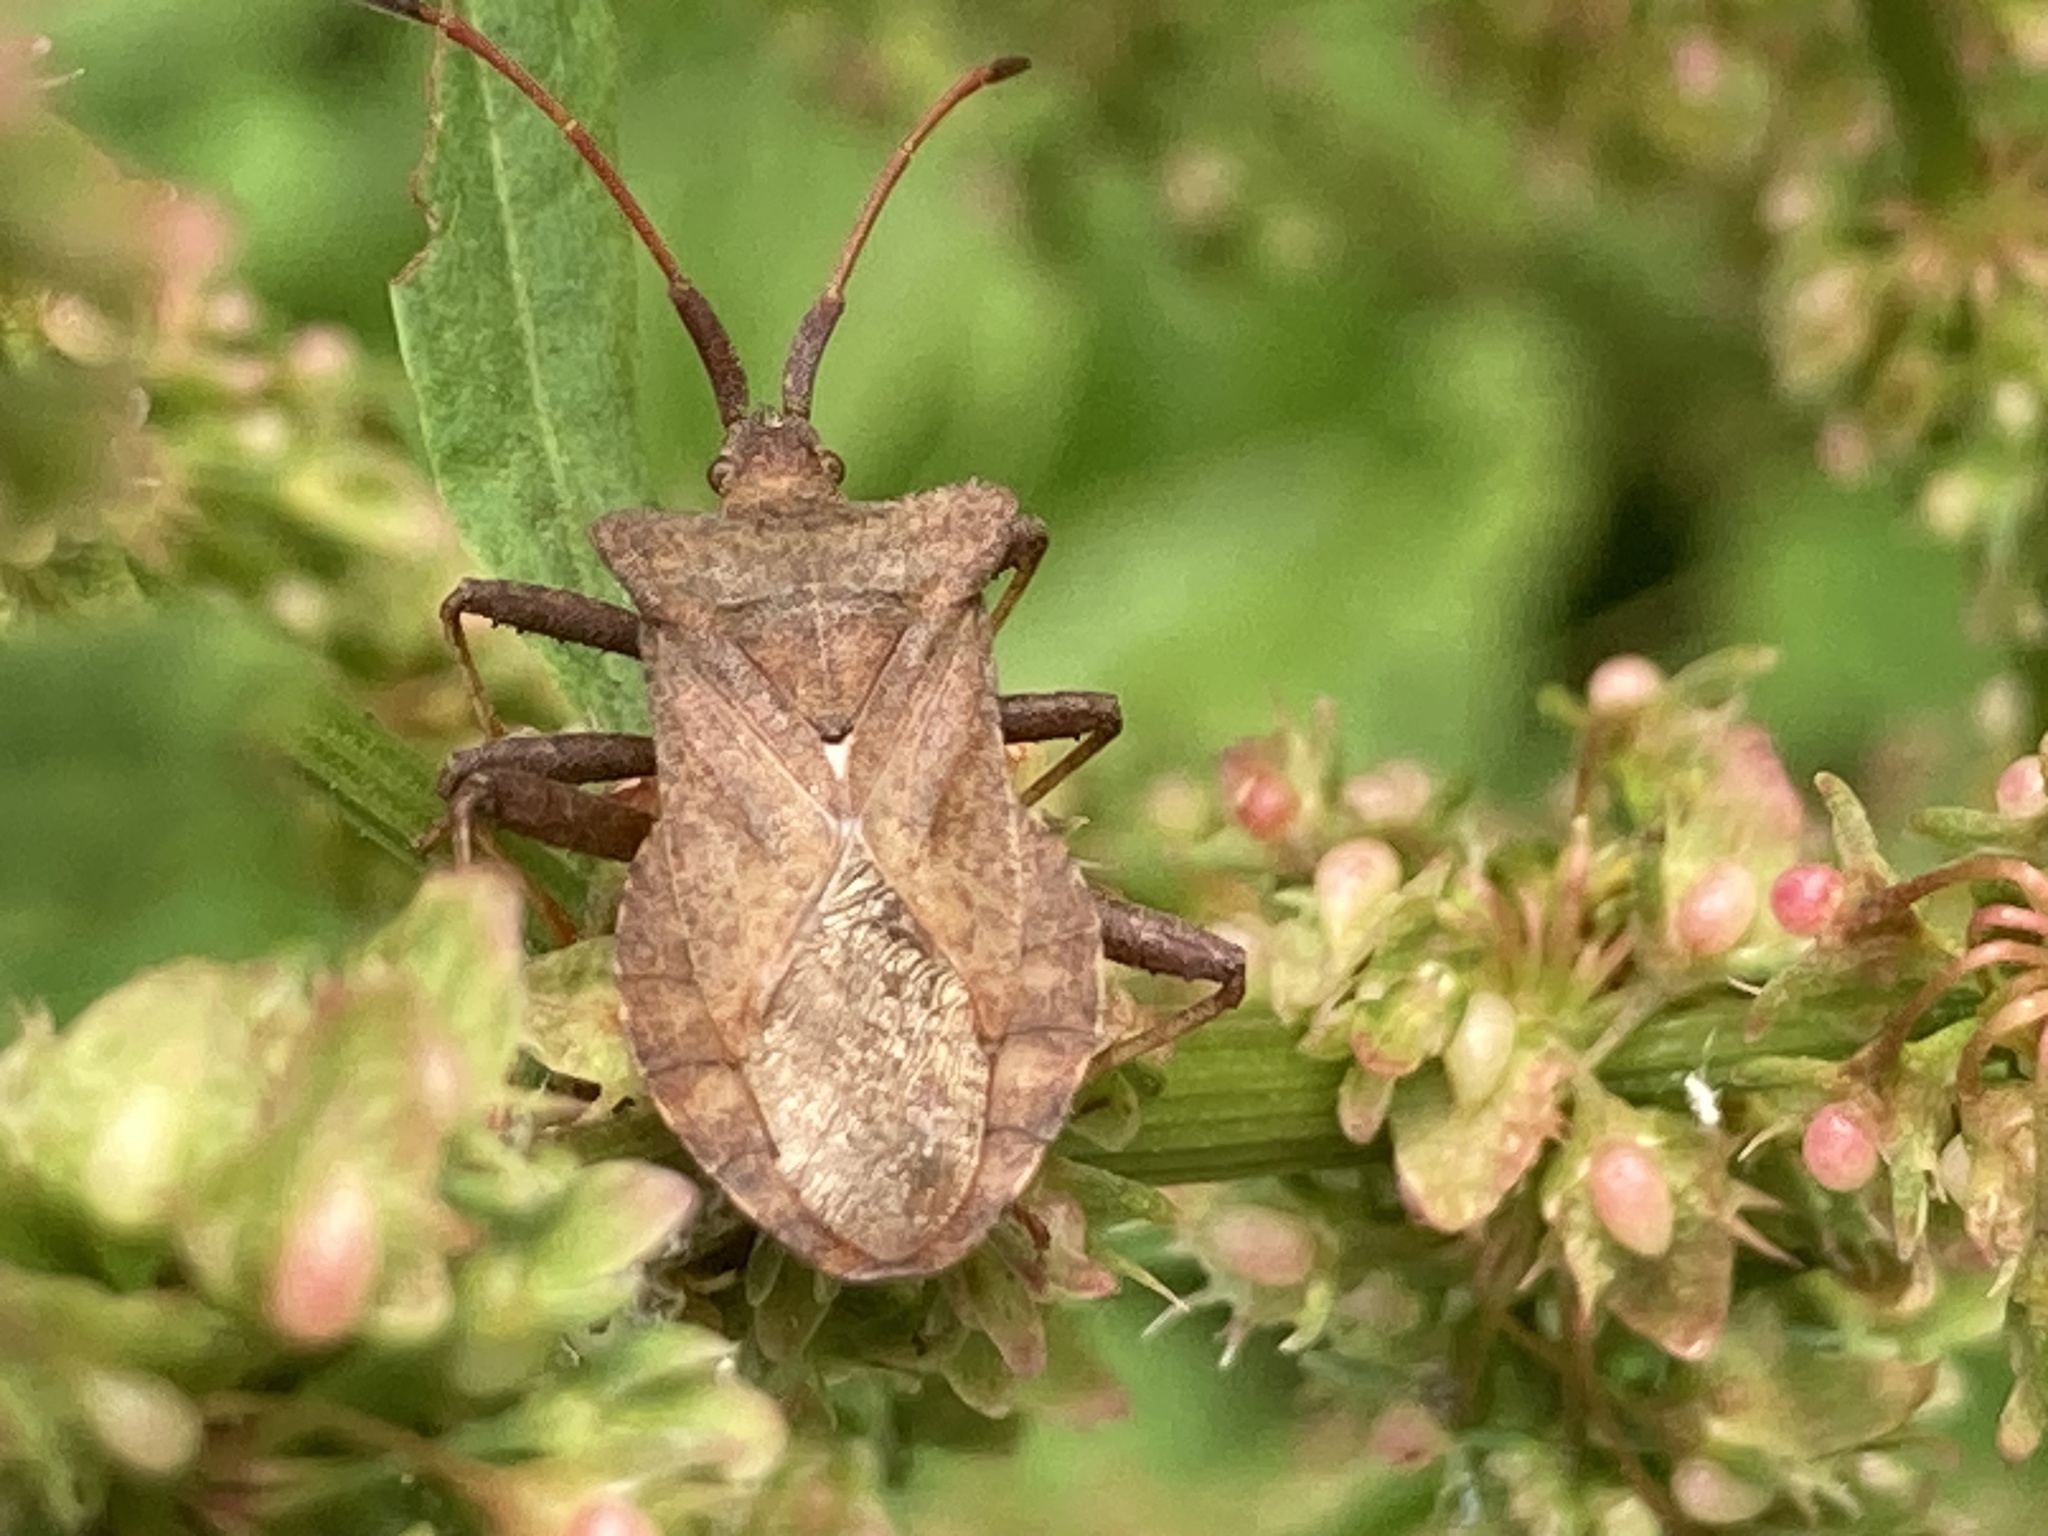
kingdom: Animalia
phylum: Arthropoda
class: Insecta
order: Hemiptera
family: Coreidae
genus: Coreus
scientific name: Coreus marginatus
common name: Dock bug
